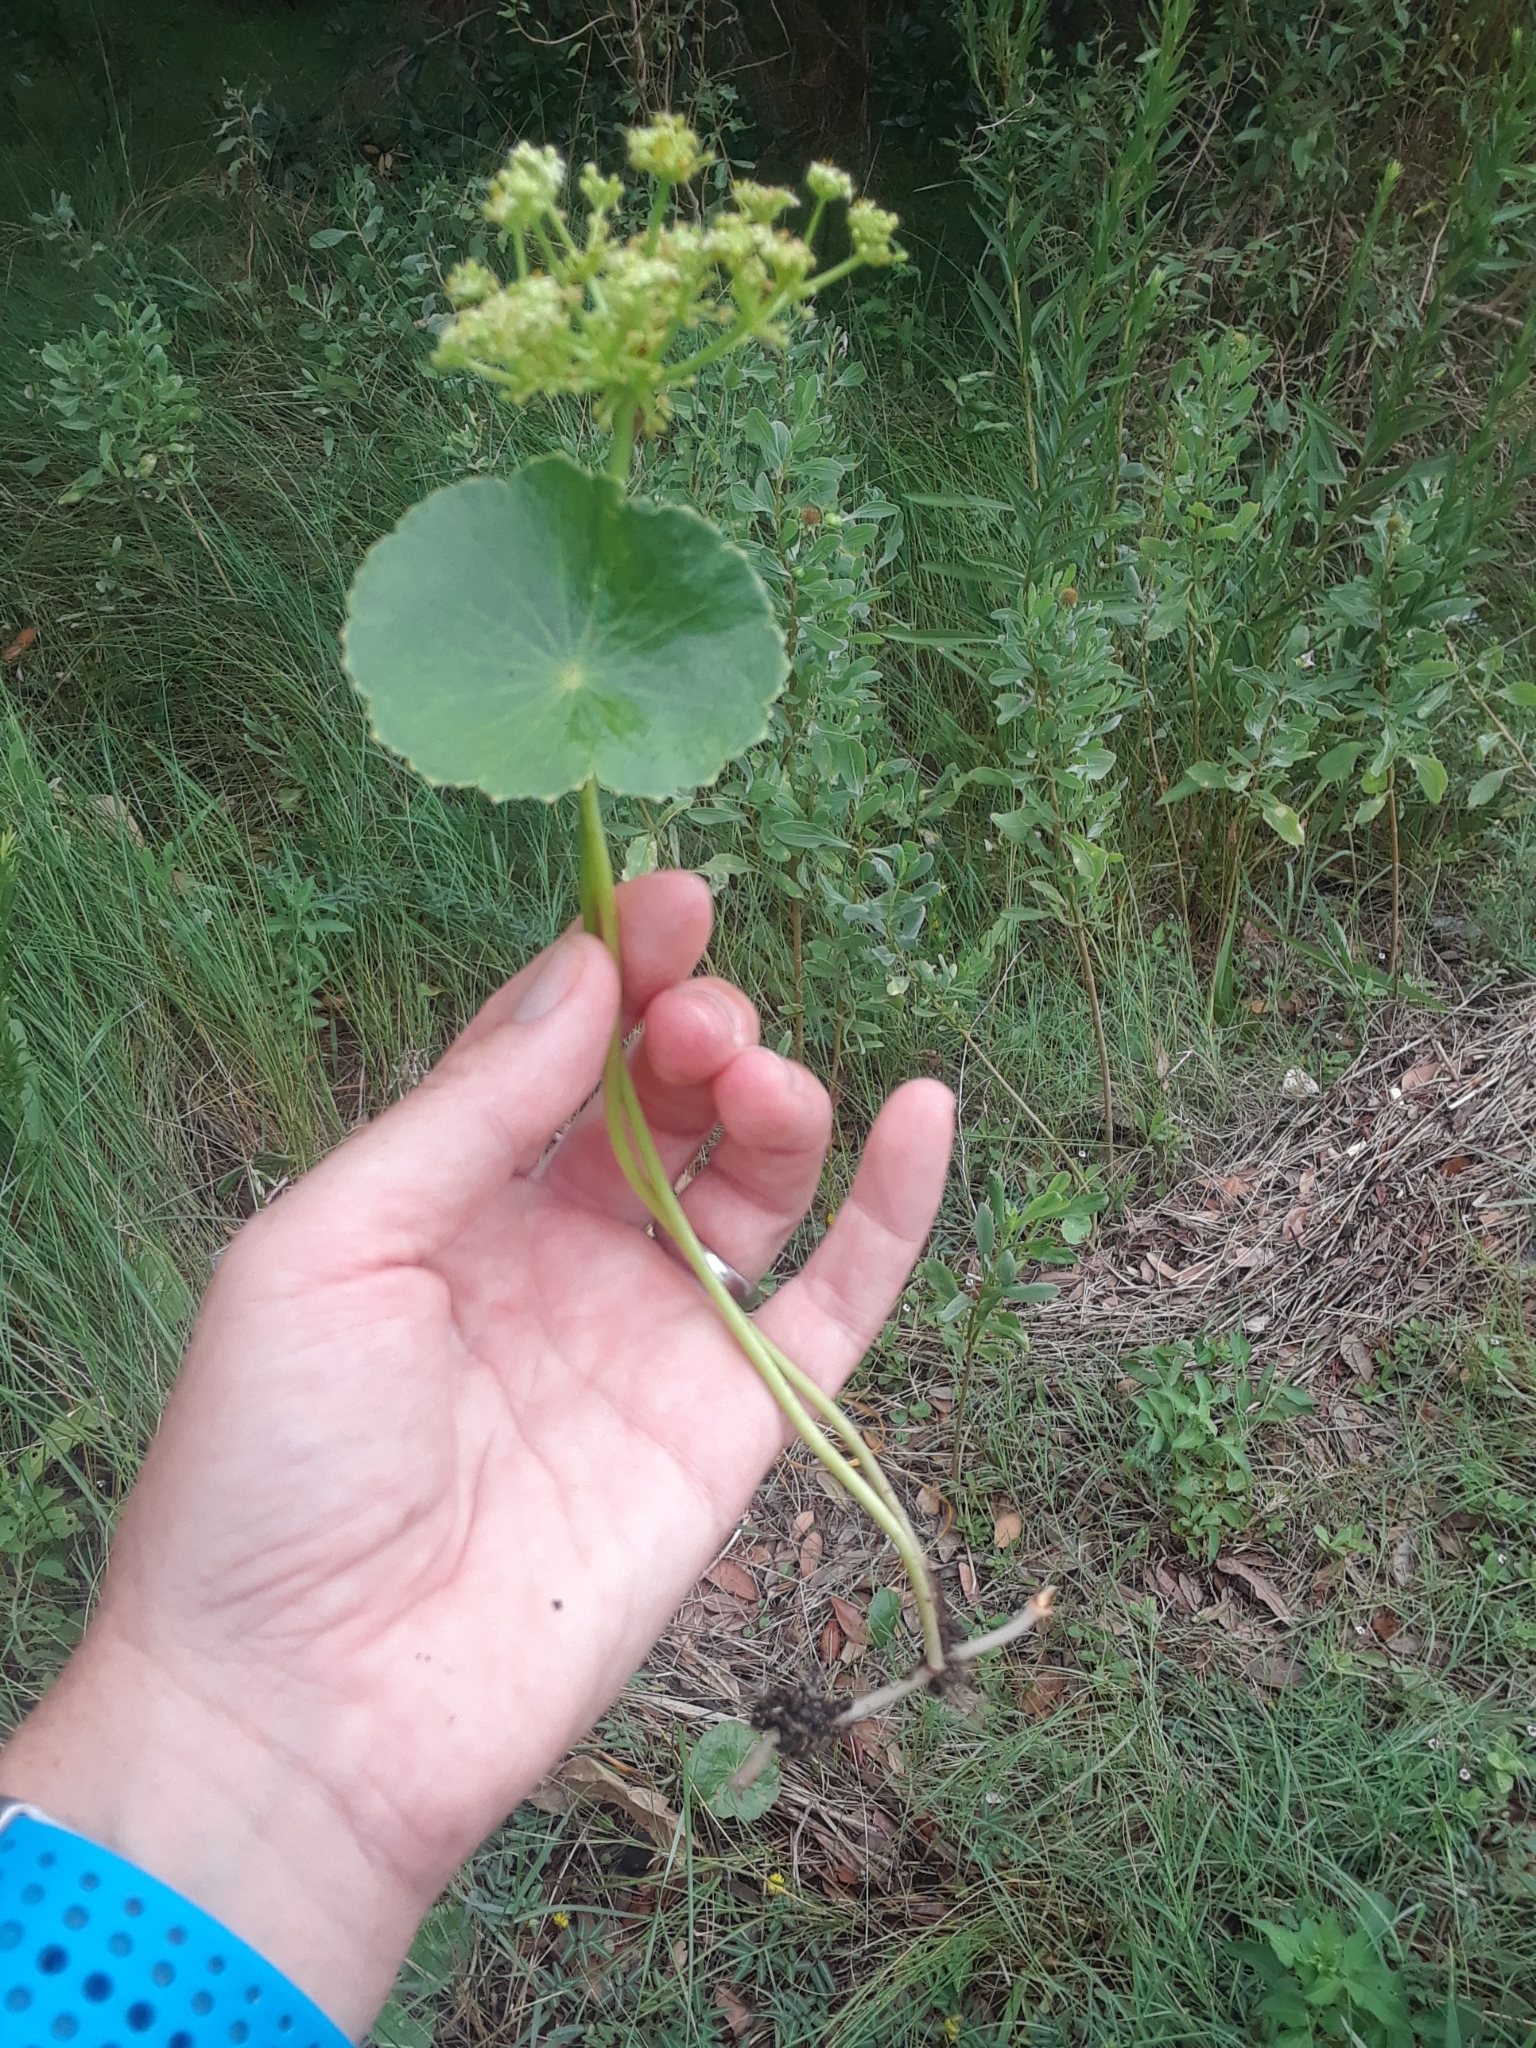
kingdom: Plantae
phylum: Tracheophyta
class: Magnoliopsida
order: Apiales
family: Araliaceae
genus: Hydrocotyle
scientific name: Hydrocotyle bonariensis
